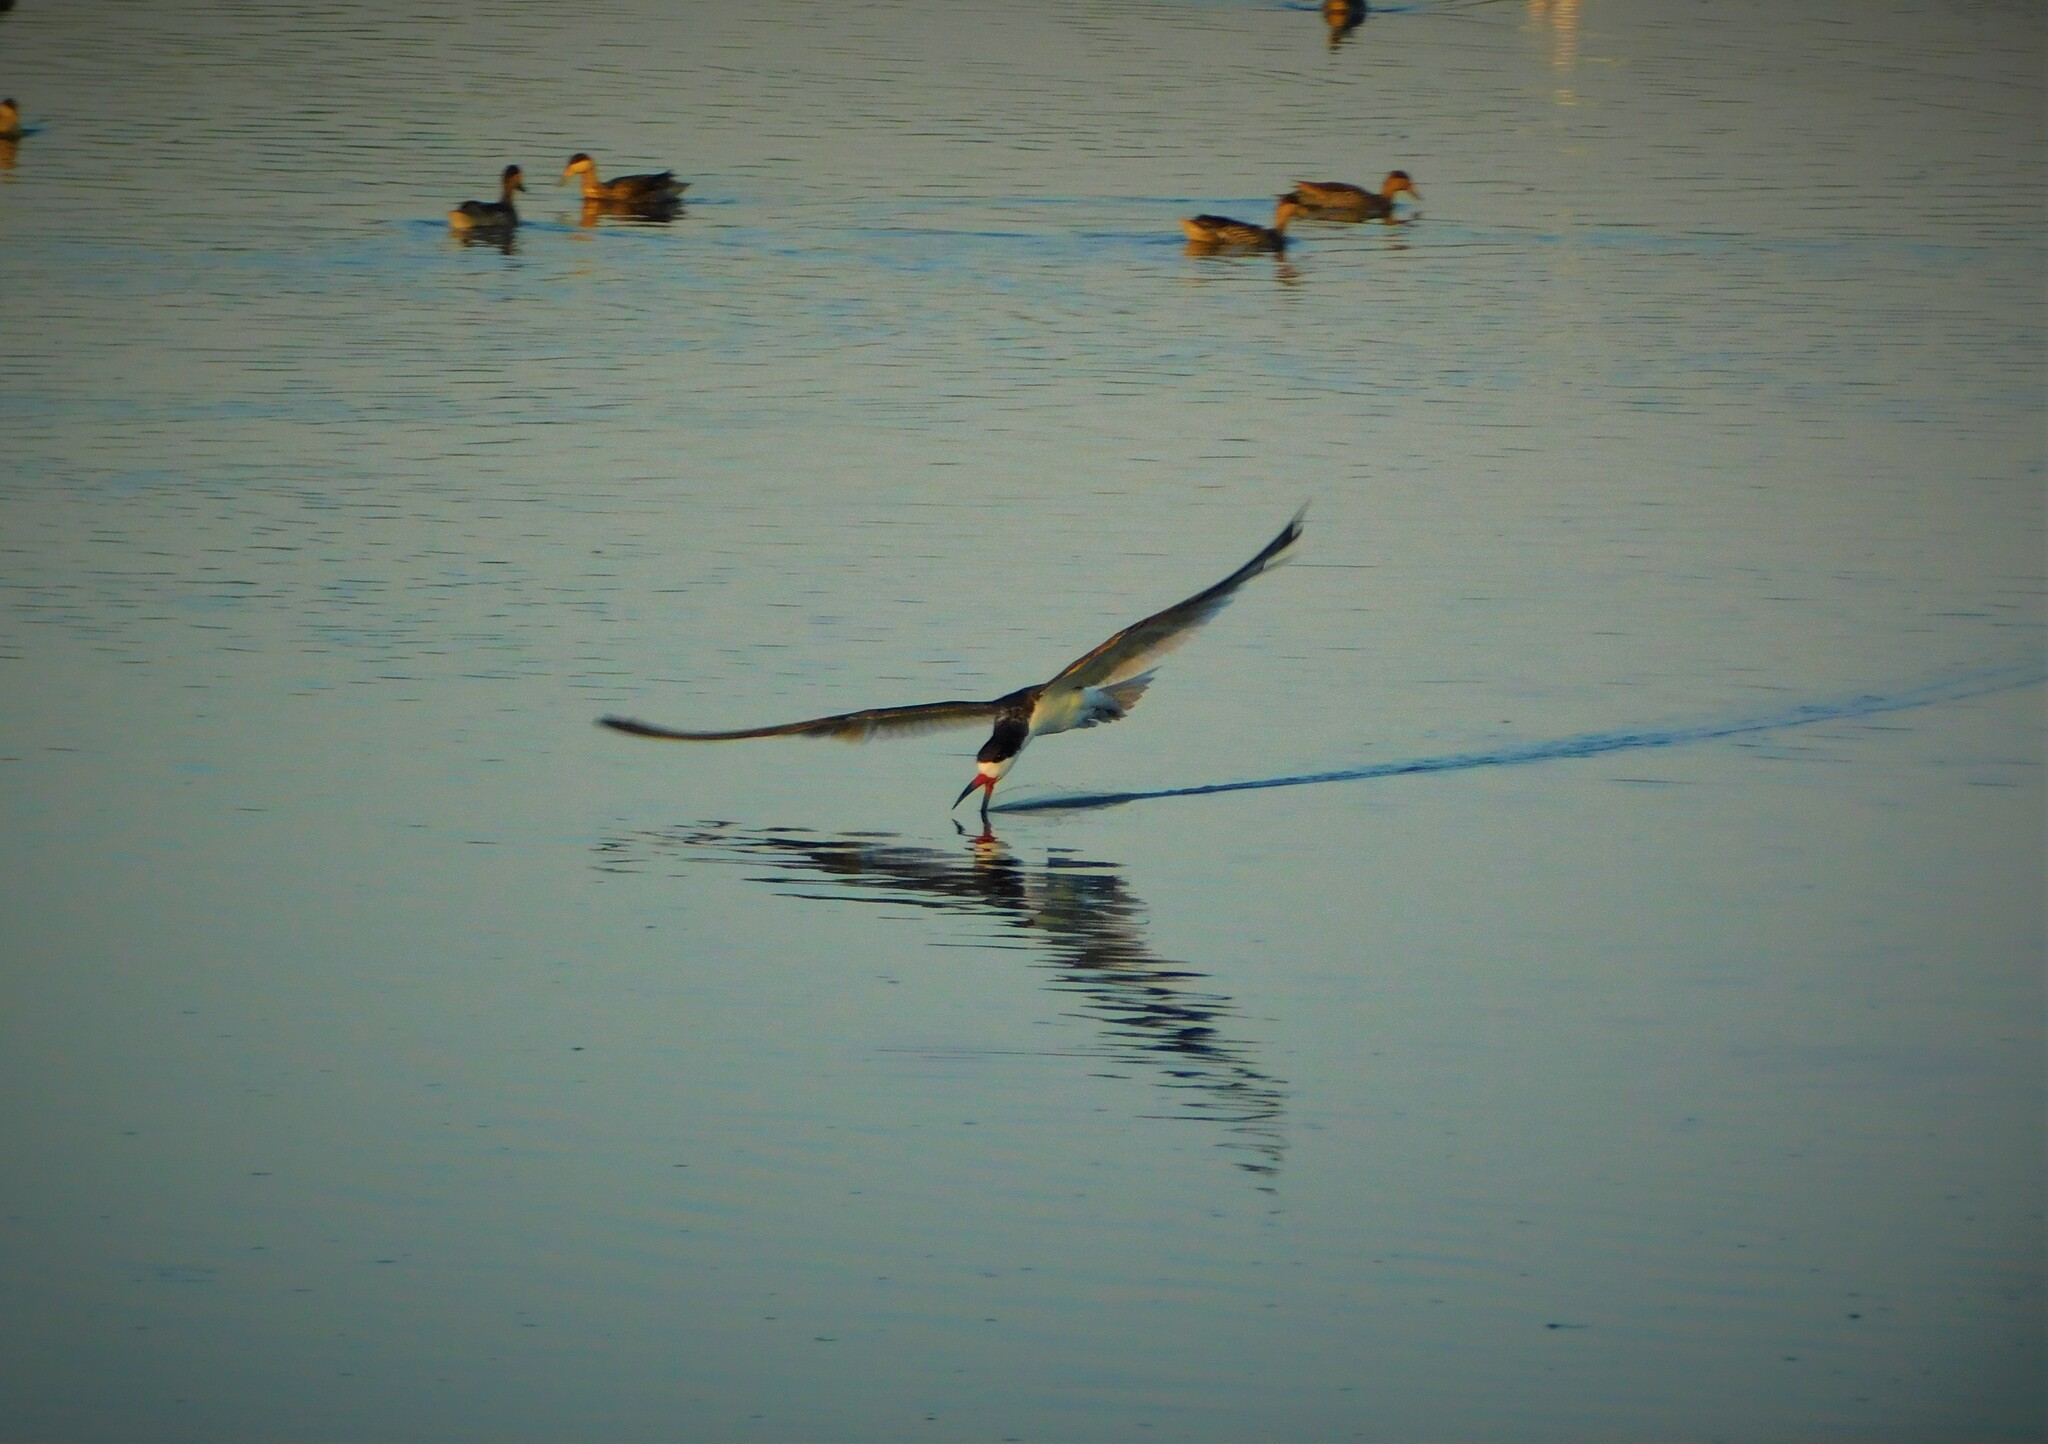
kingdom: Animalia
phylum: Chordata
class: Aves
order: Charadriiformes
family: Laridae
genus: Rynchops
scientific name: Rynchops niger
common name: Black skimmer
